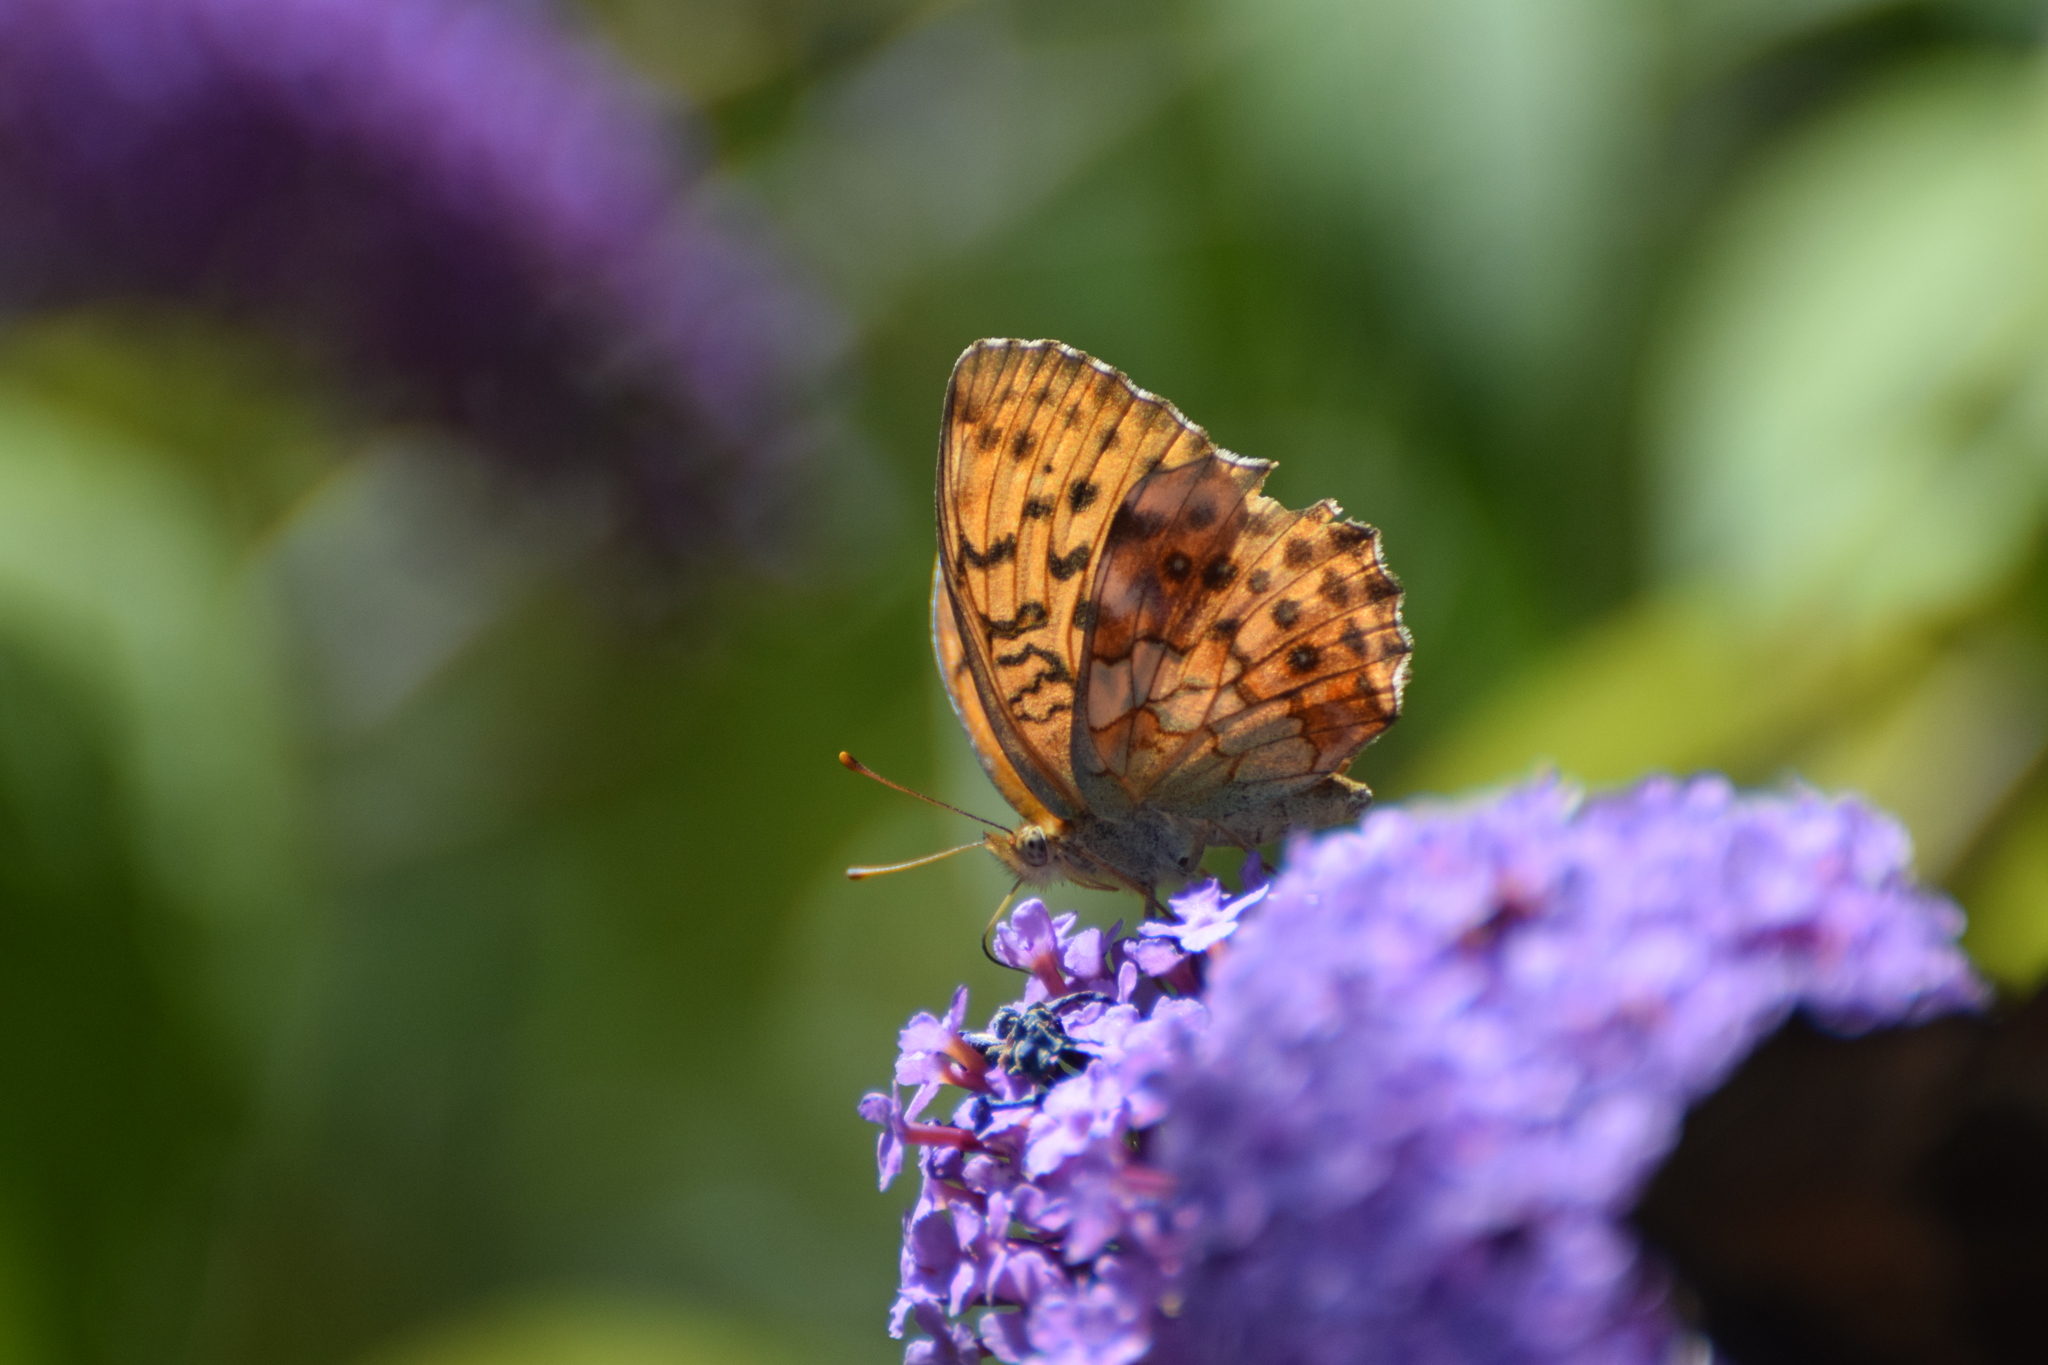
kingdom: Animalia
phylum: Arthropoda
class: Insecta
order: Lepidoptera
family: Nymphalidae
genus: Brenthis
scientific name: Brenthis daphne
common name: Marbled fritillary
